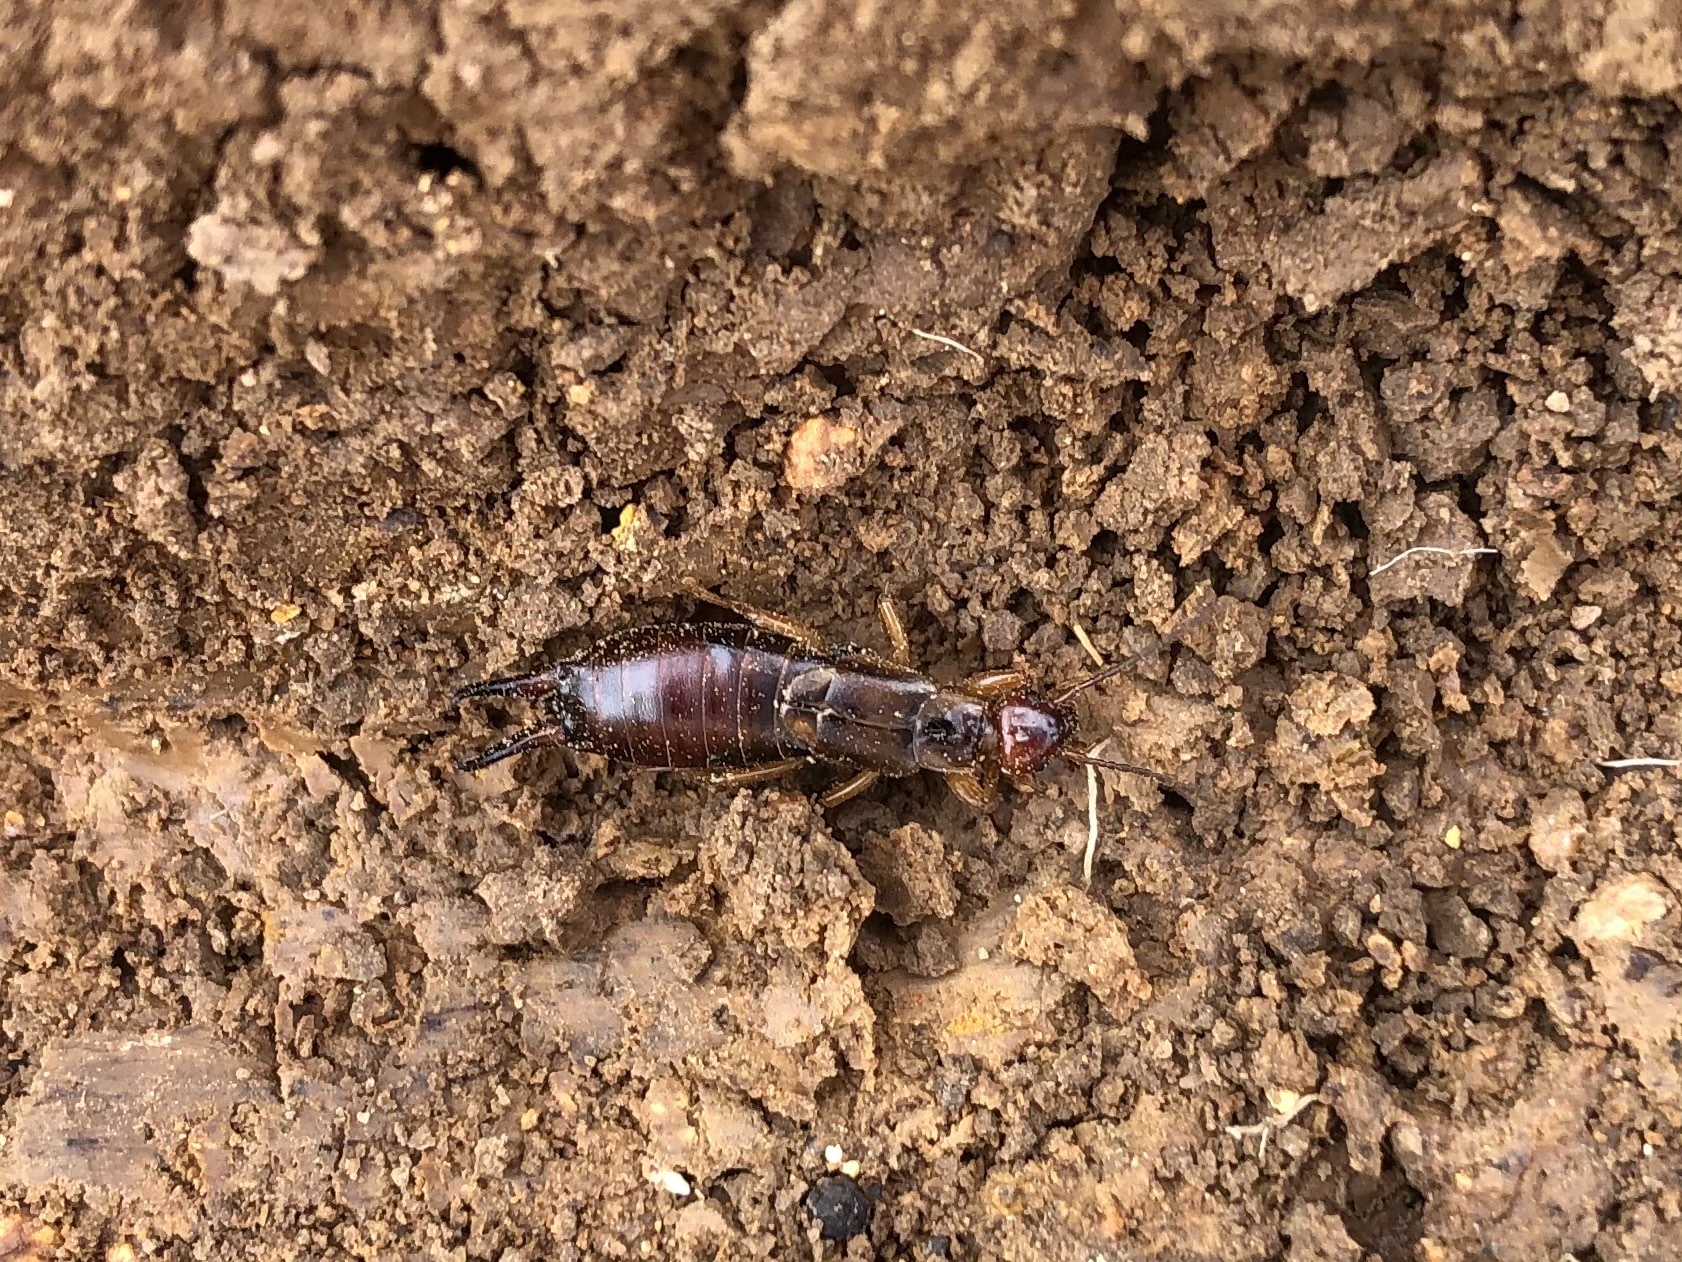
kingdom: Animalia
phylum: Arthropoda
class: Insecta
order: Dermaptera
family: Forficulidae
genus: Forficula
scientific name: Forficula
